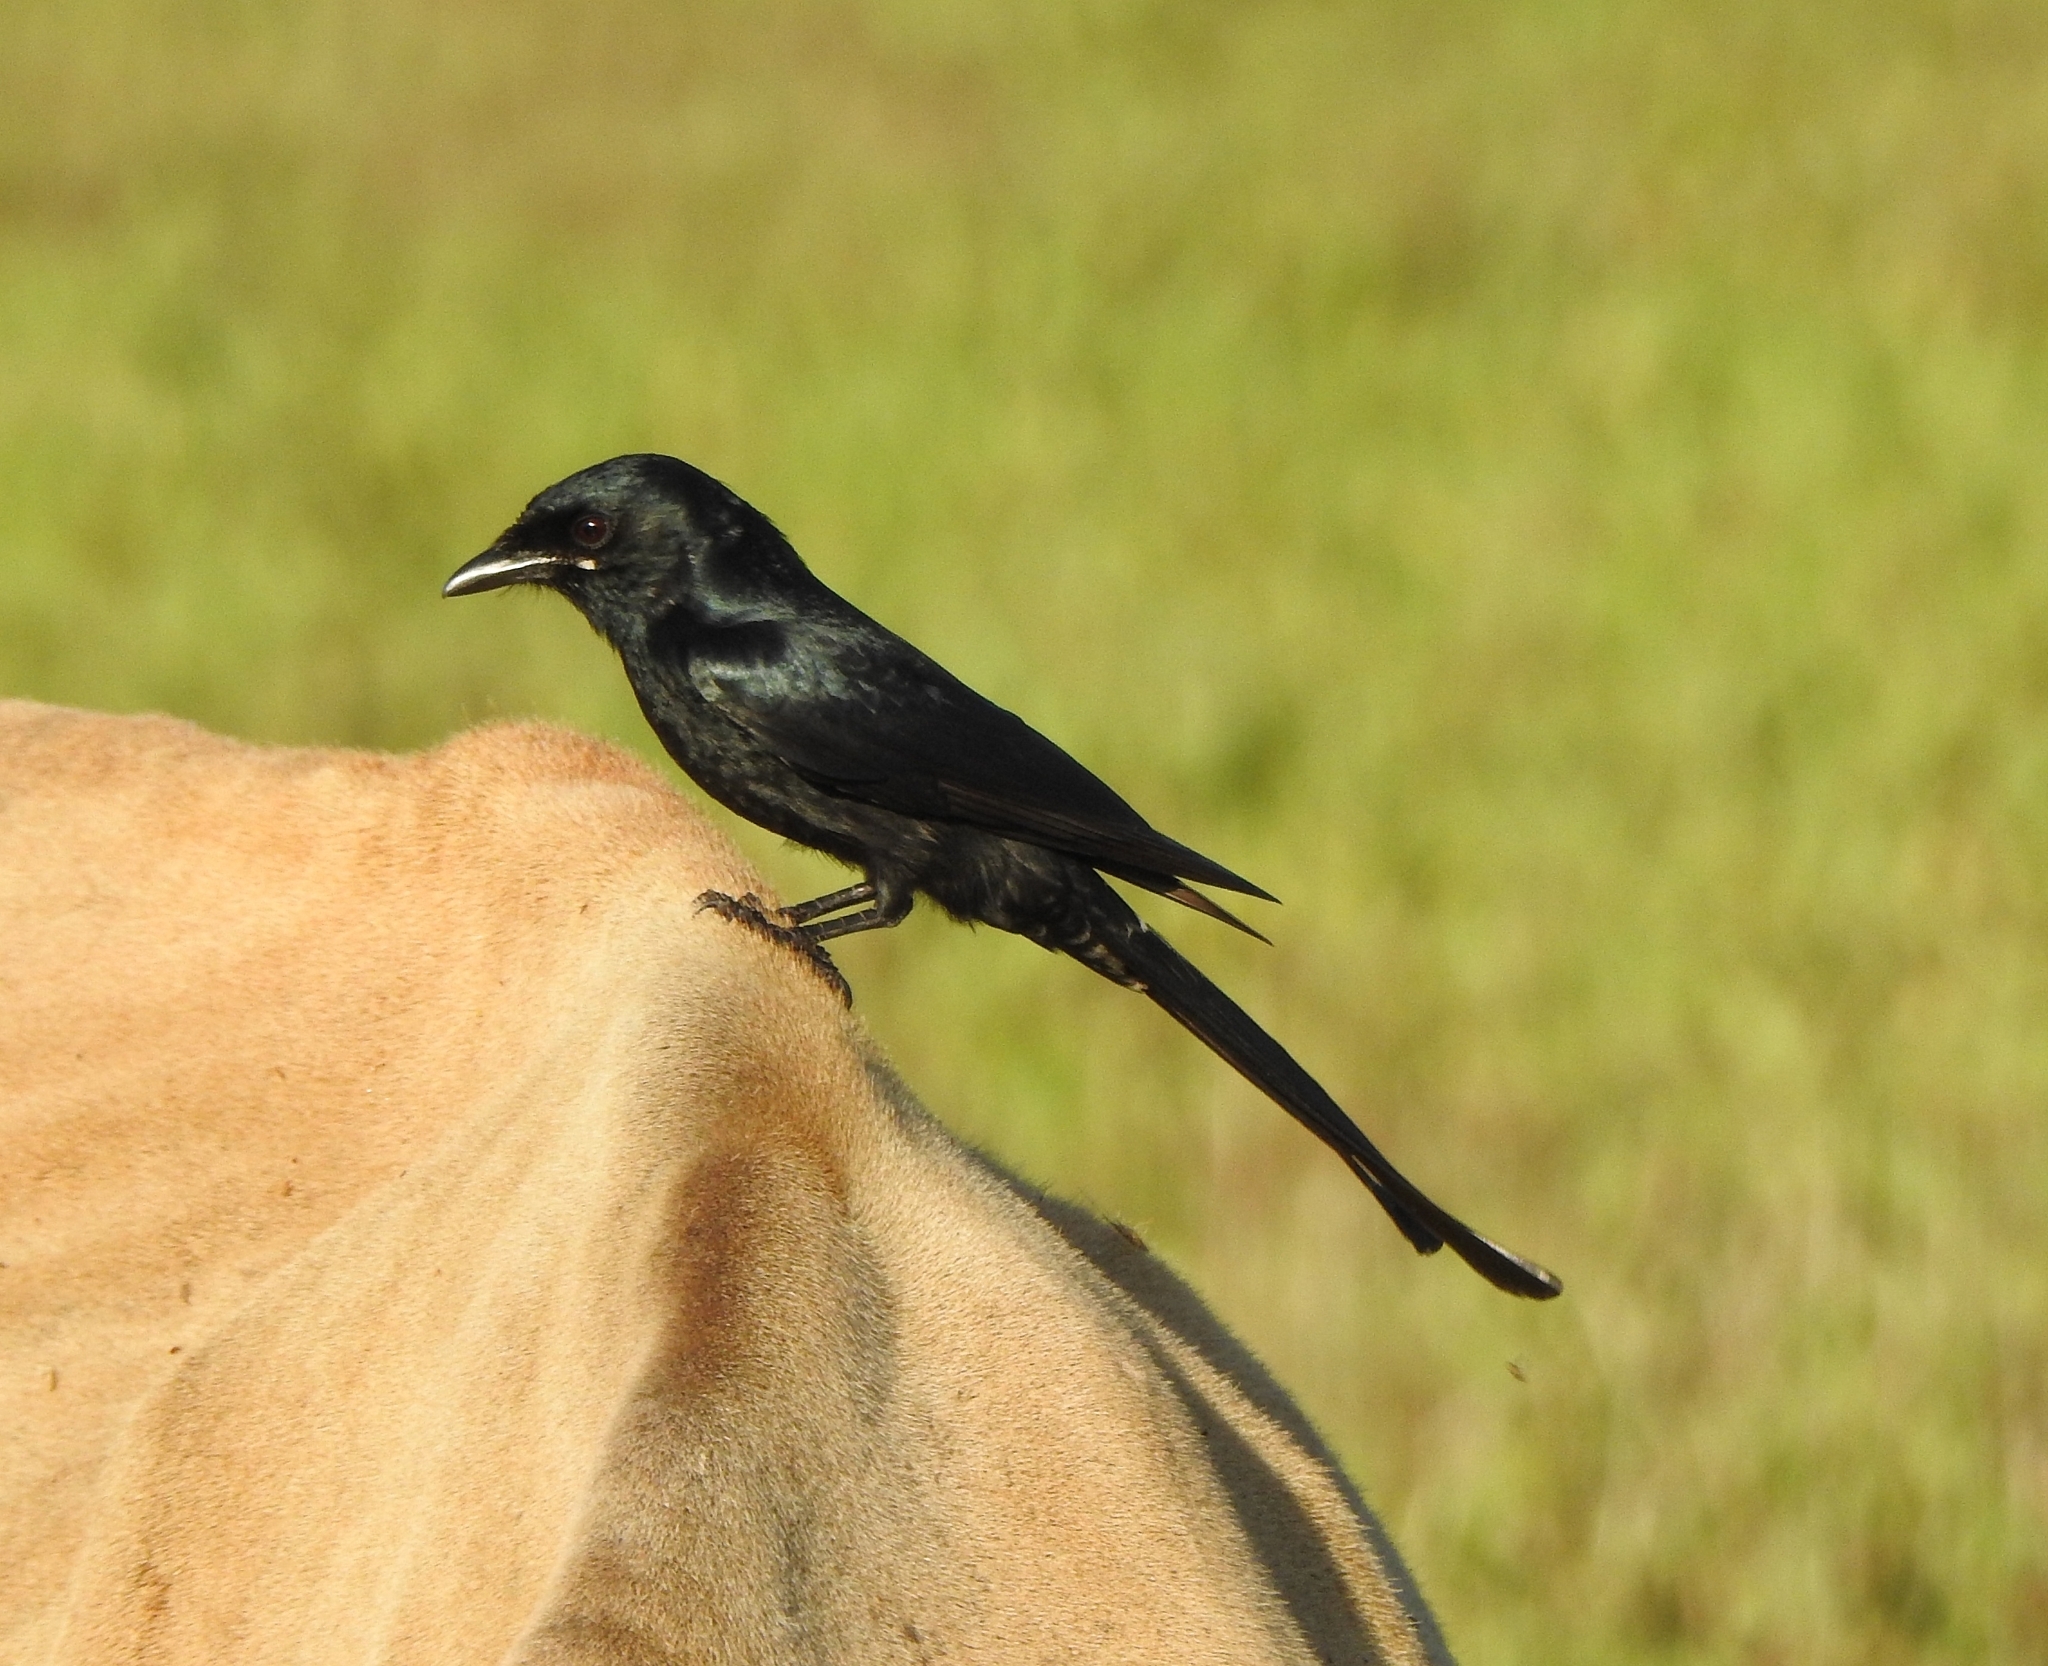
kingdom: Animalia
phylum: Chordata
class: Aves
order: Passeriformes
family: Dicruridae
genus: Dicrurus
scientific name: Dicrurus macrocercus
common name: Black drongo
